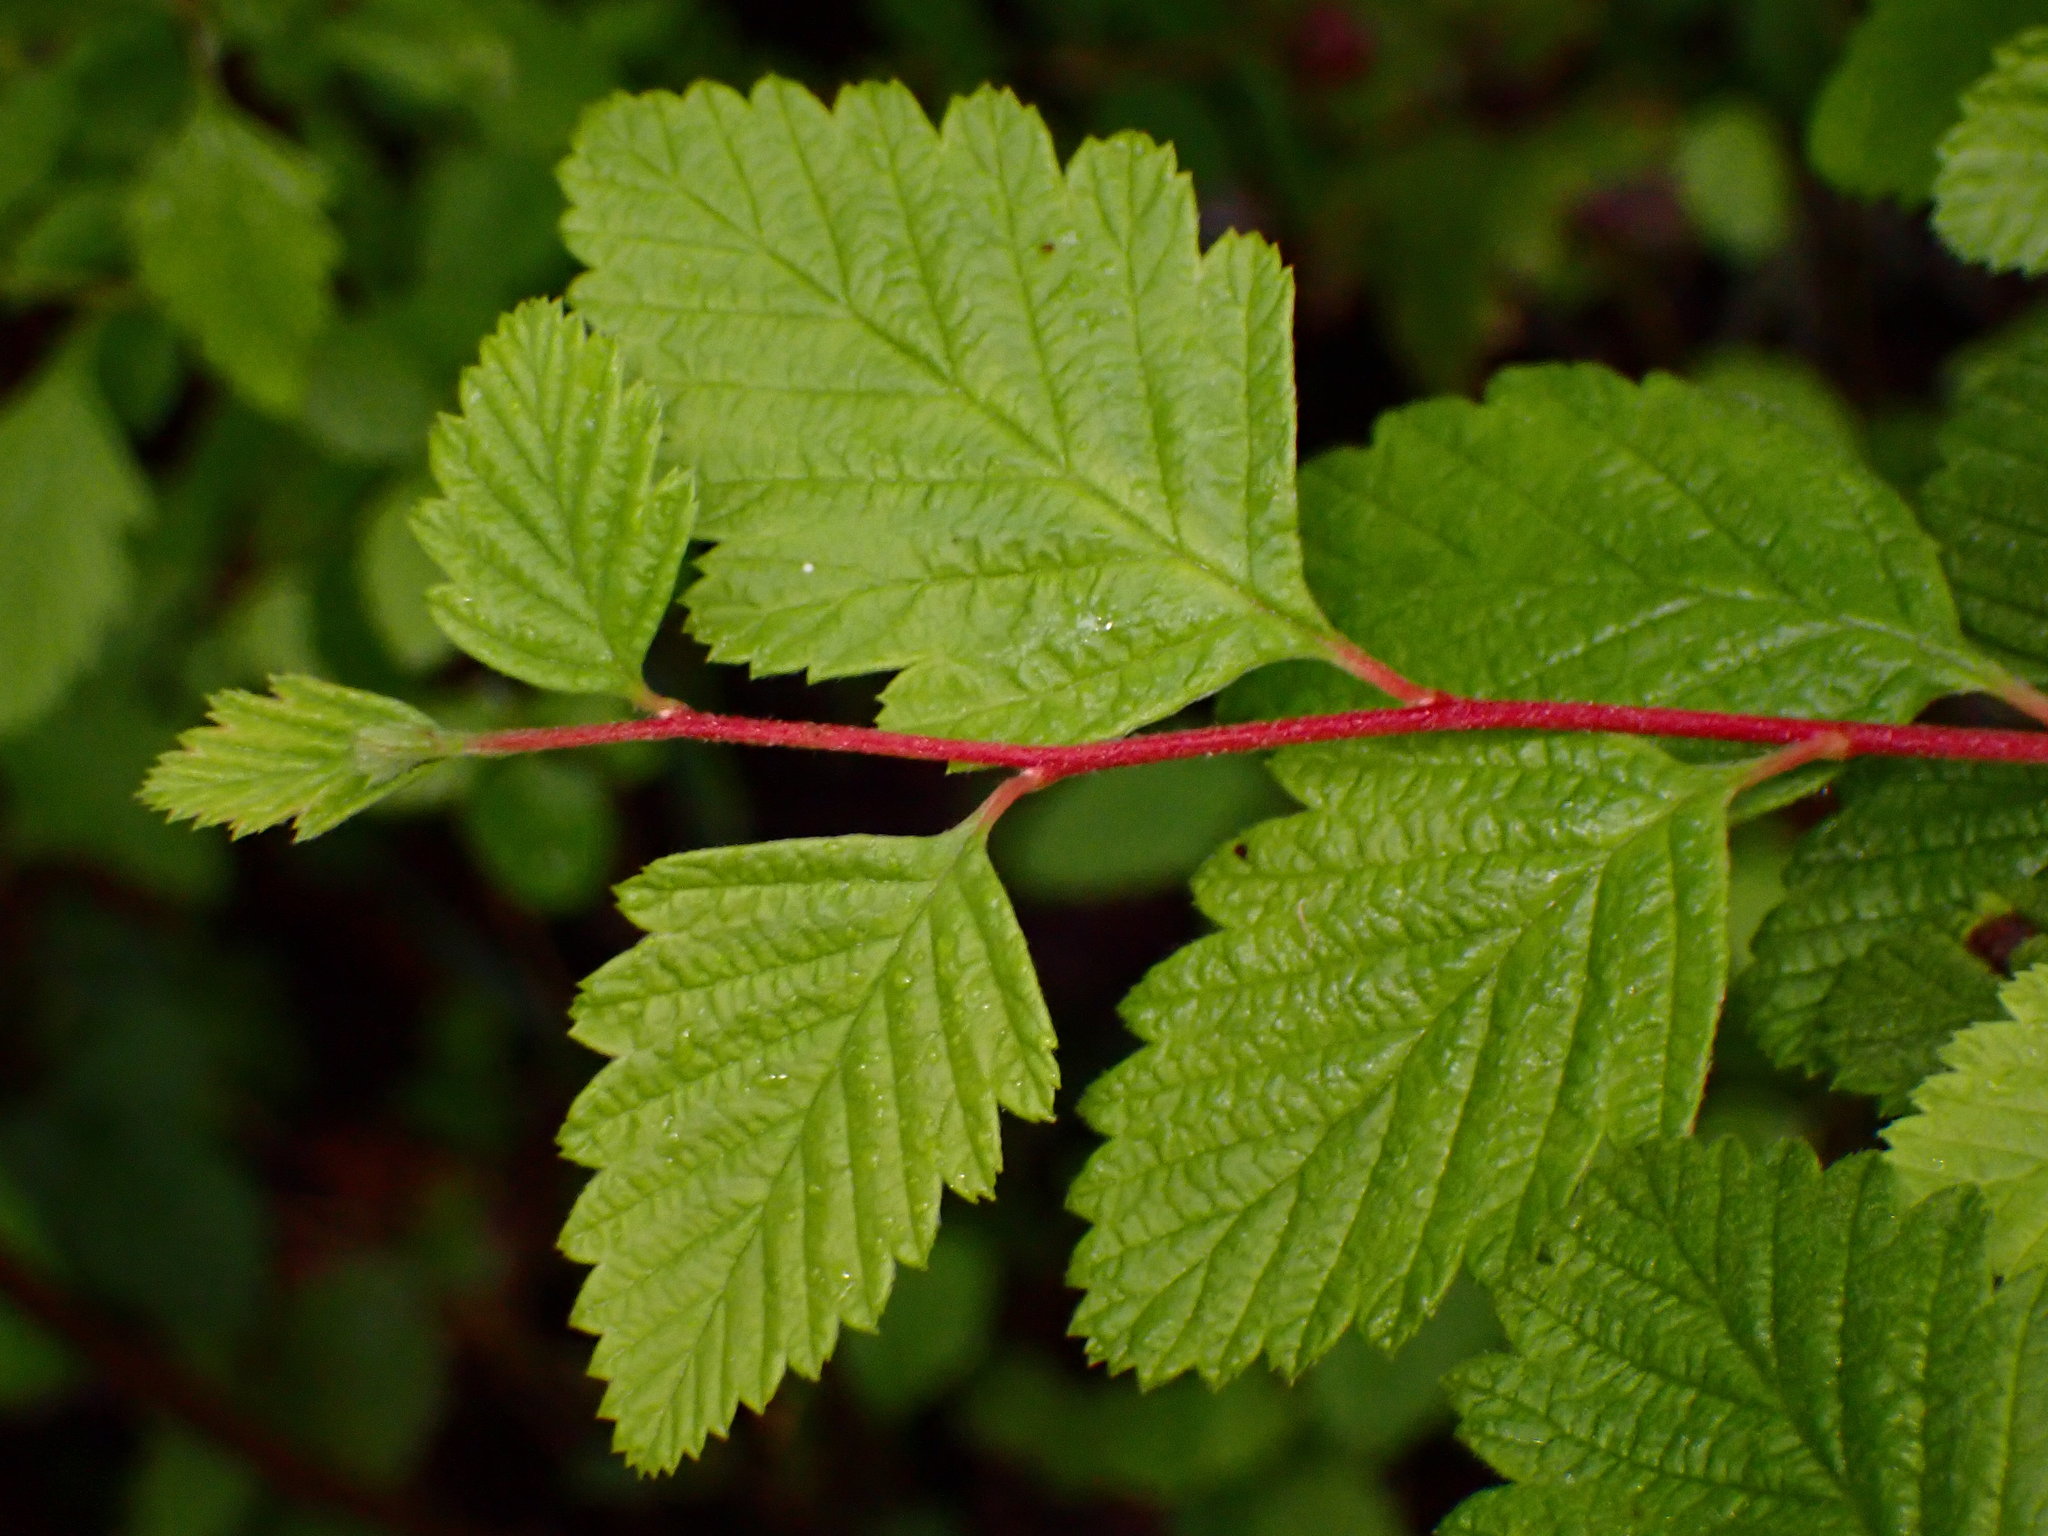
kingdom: Plantae
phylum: Tracheophyta
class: Magnoliopsida
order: Rosales
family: Rosaceae
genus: Holodiscus
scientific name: Holodiscus discolor
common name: Oceanspray
